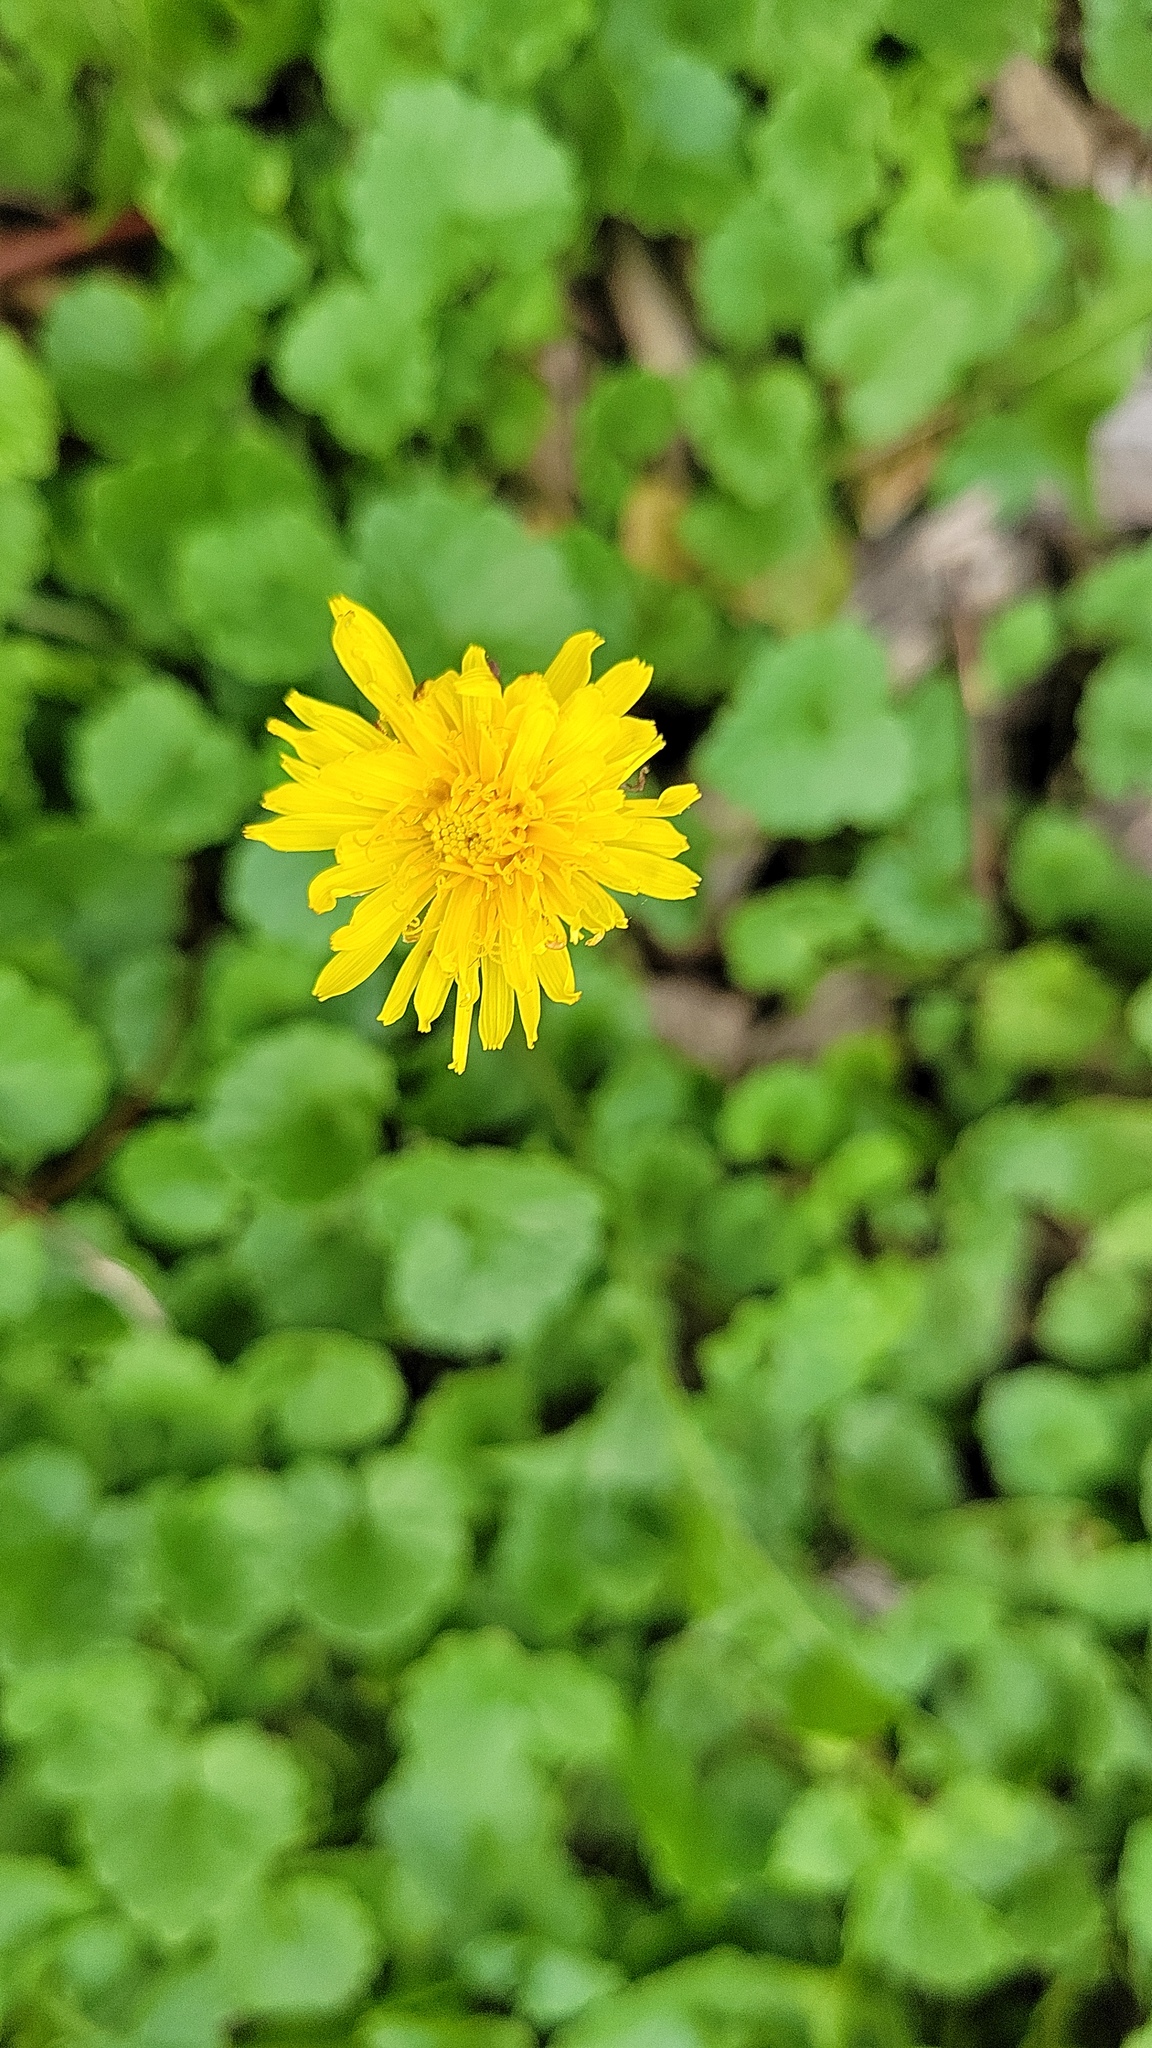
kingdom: Plantae
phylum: Tracheophyta
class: Magnoliopsida
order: Asterales
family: Asteraceae
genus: Taraxacum
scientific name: Taraxacum officinale
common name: Common dandelion
